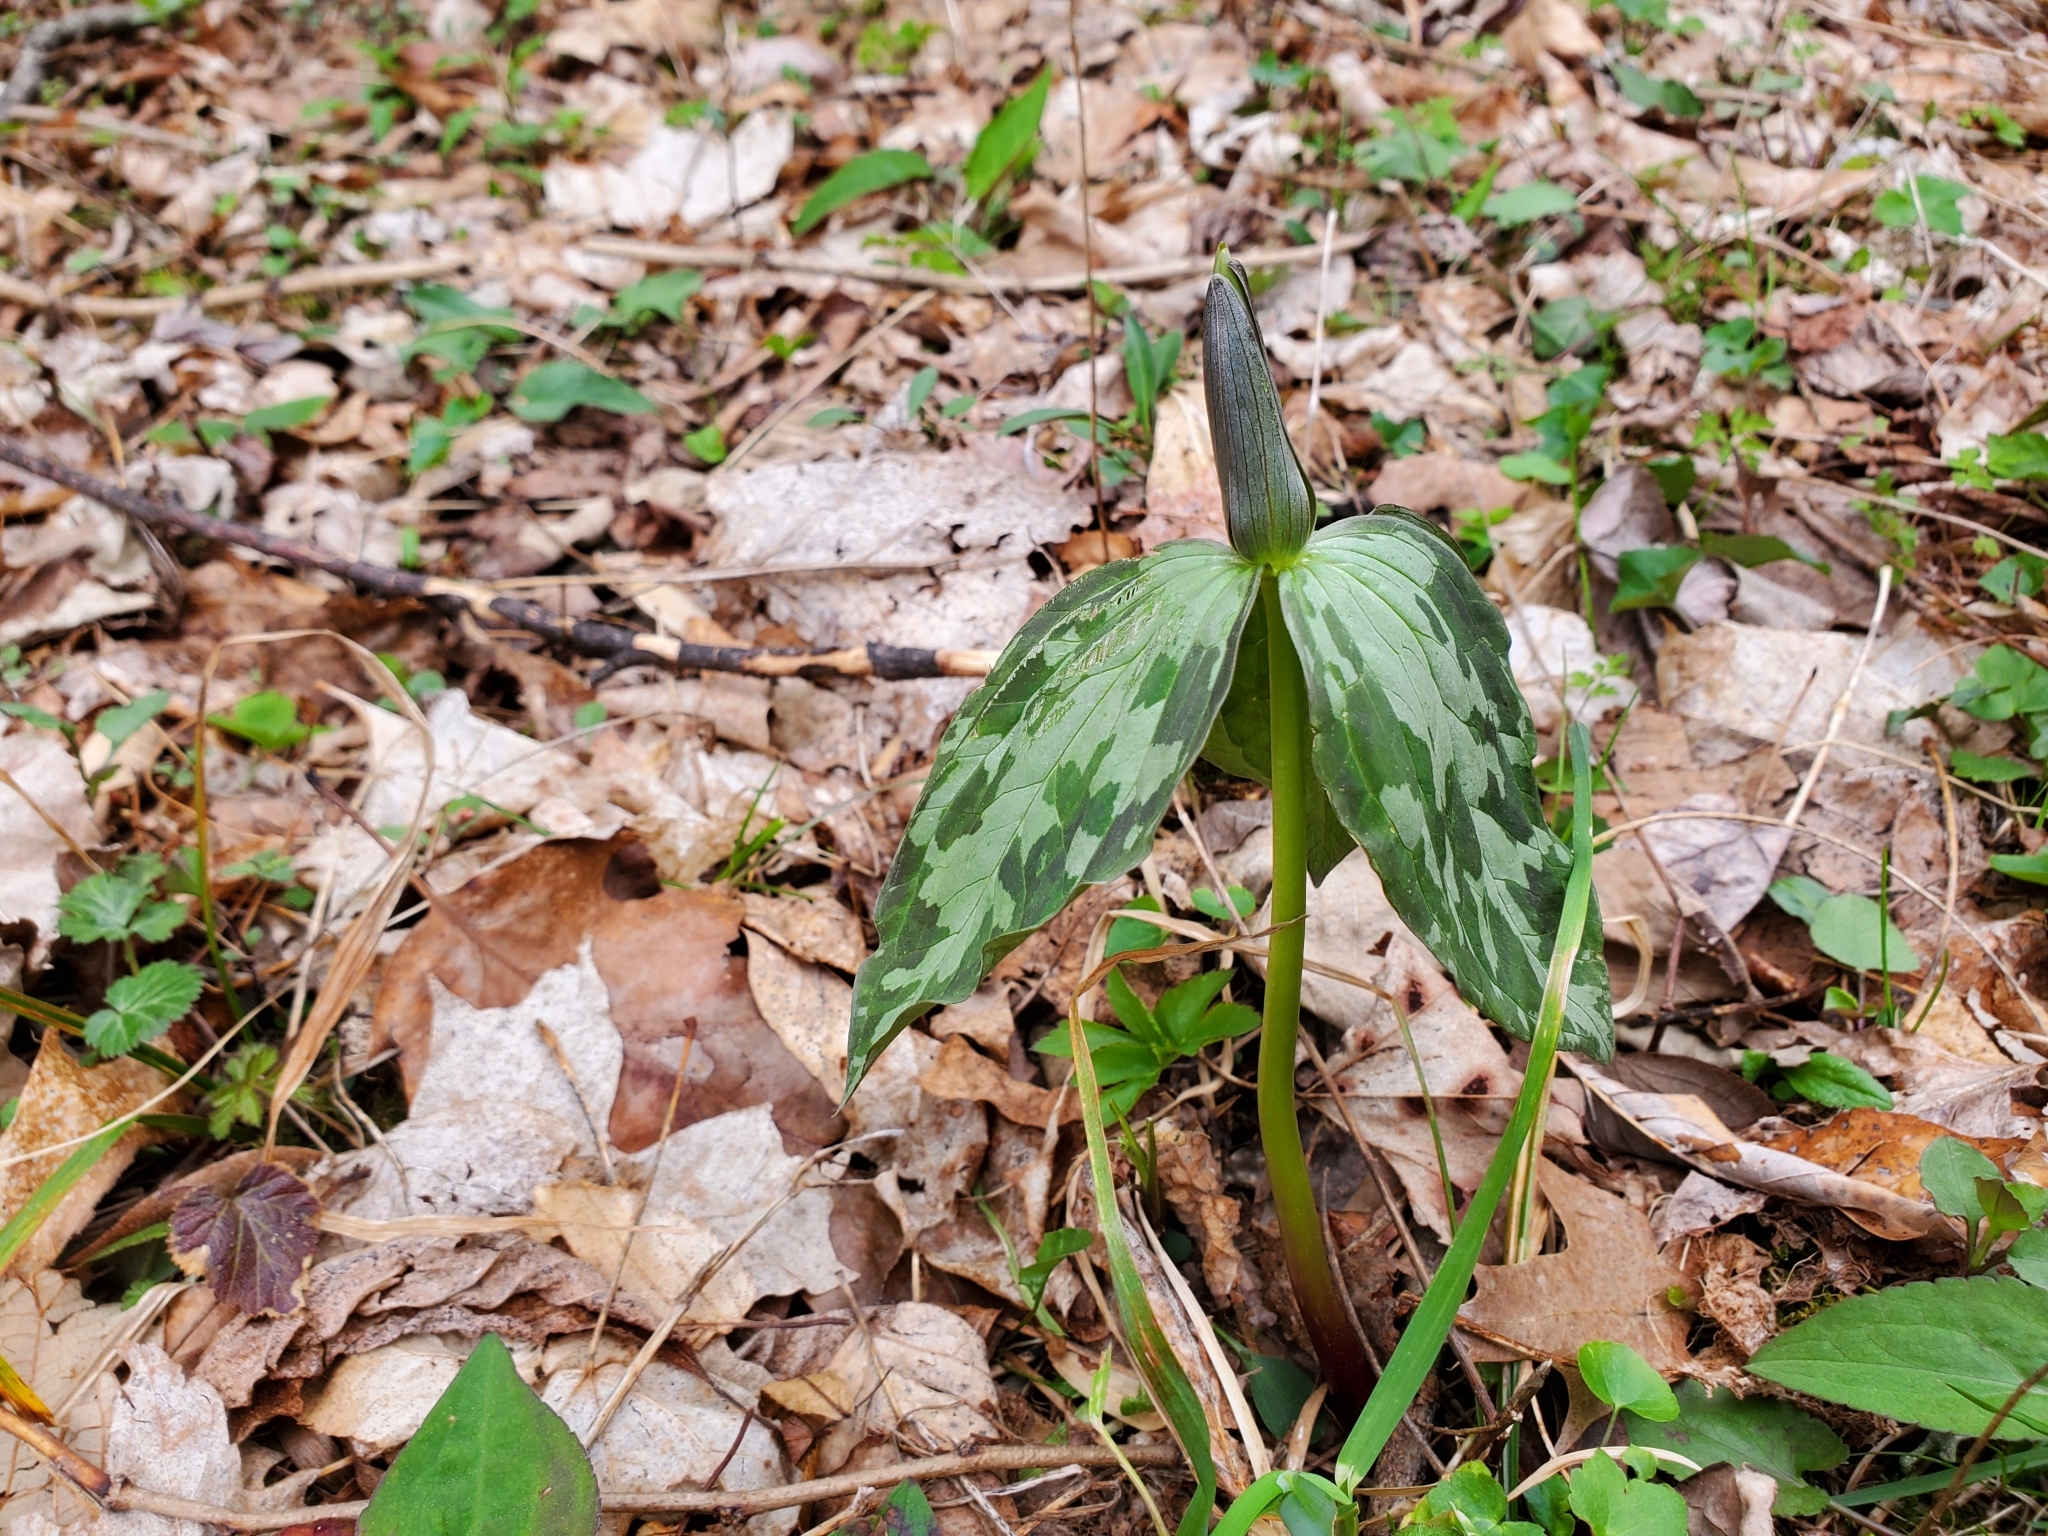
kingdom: Plantae
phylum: Tracheophyta
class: Liliopsida
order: Liliales
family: Melanthiaceae
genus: Trillium
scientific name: Trillium cuneatum
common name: Cuneate trillium
